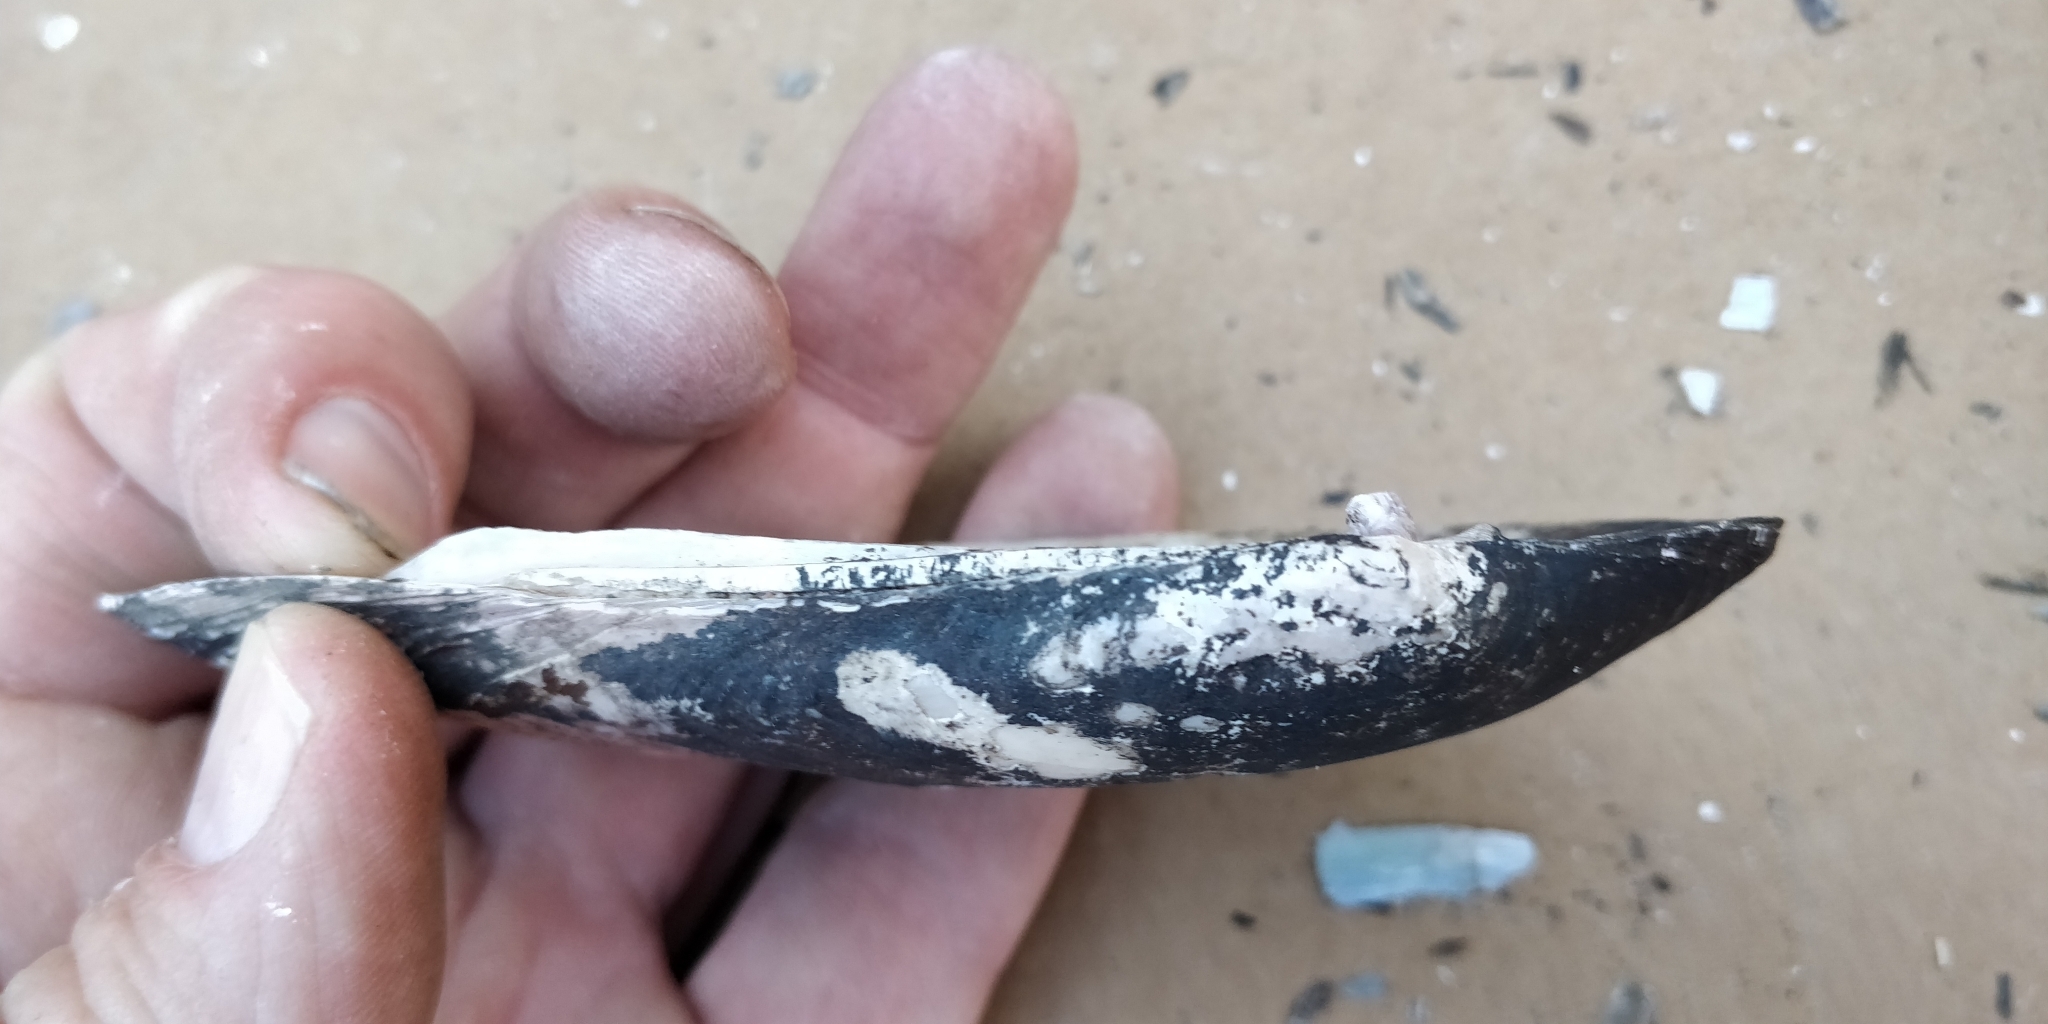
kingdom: Animalia
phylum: Mollusca
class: Bivalvia
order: Unionida
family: Unionidae
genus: Ligumia
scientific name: Ligumia recta
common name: Black sandshell
